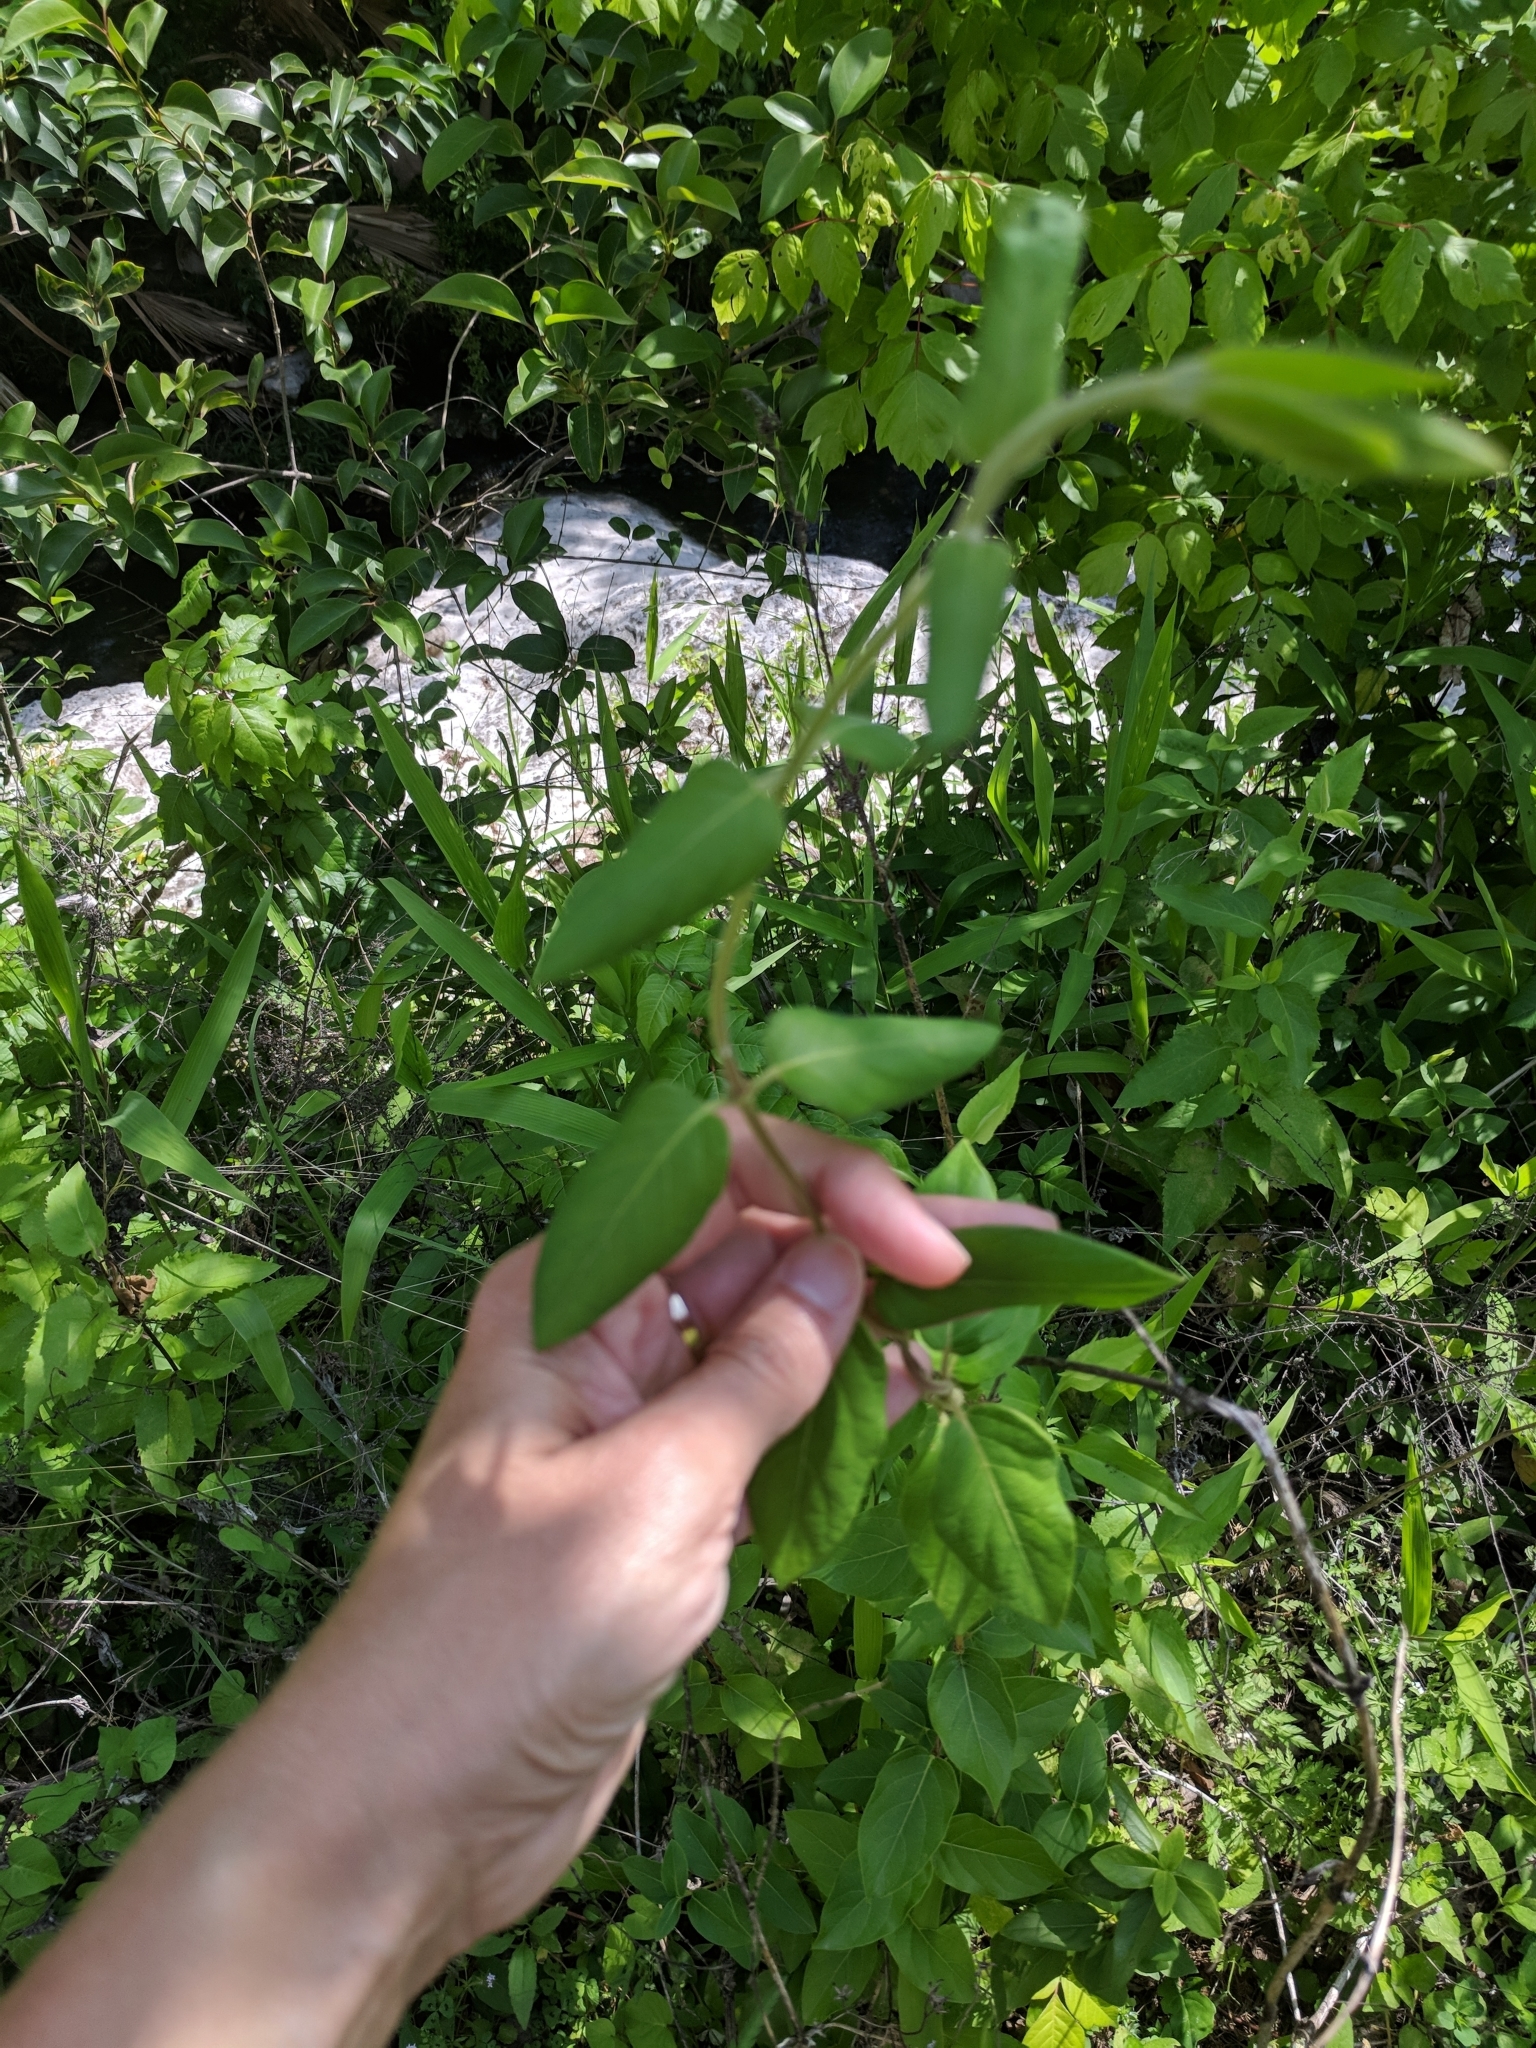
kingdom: Plantae
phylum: Tracheophyta
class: Magnoliopsida
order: Dipsacales
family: Caprifoliaceae
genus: Lonicera
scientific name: Lonicera japonica
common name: Japanese honeysuckle
